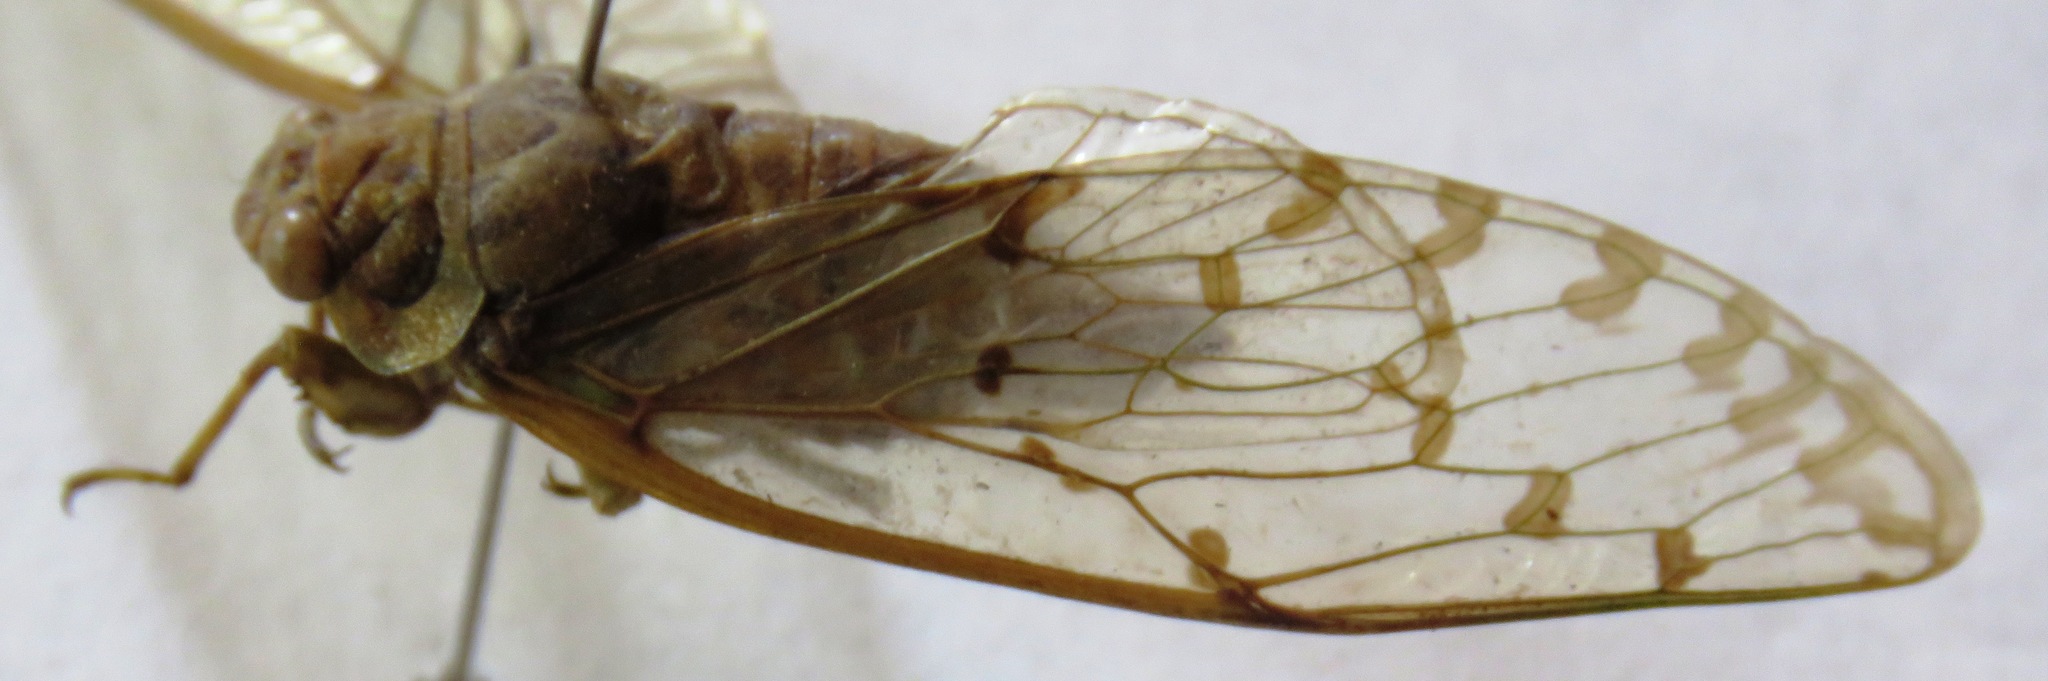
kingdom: Animalia
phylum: Arthropoda
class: Insecta
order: Hemiptera
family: Cicadidae
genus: Procollina
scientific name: Procollina nicaraguaensis
